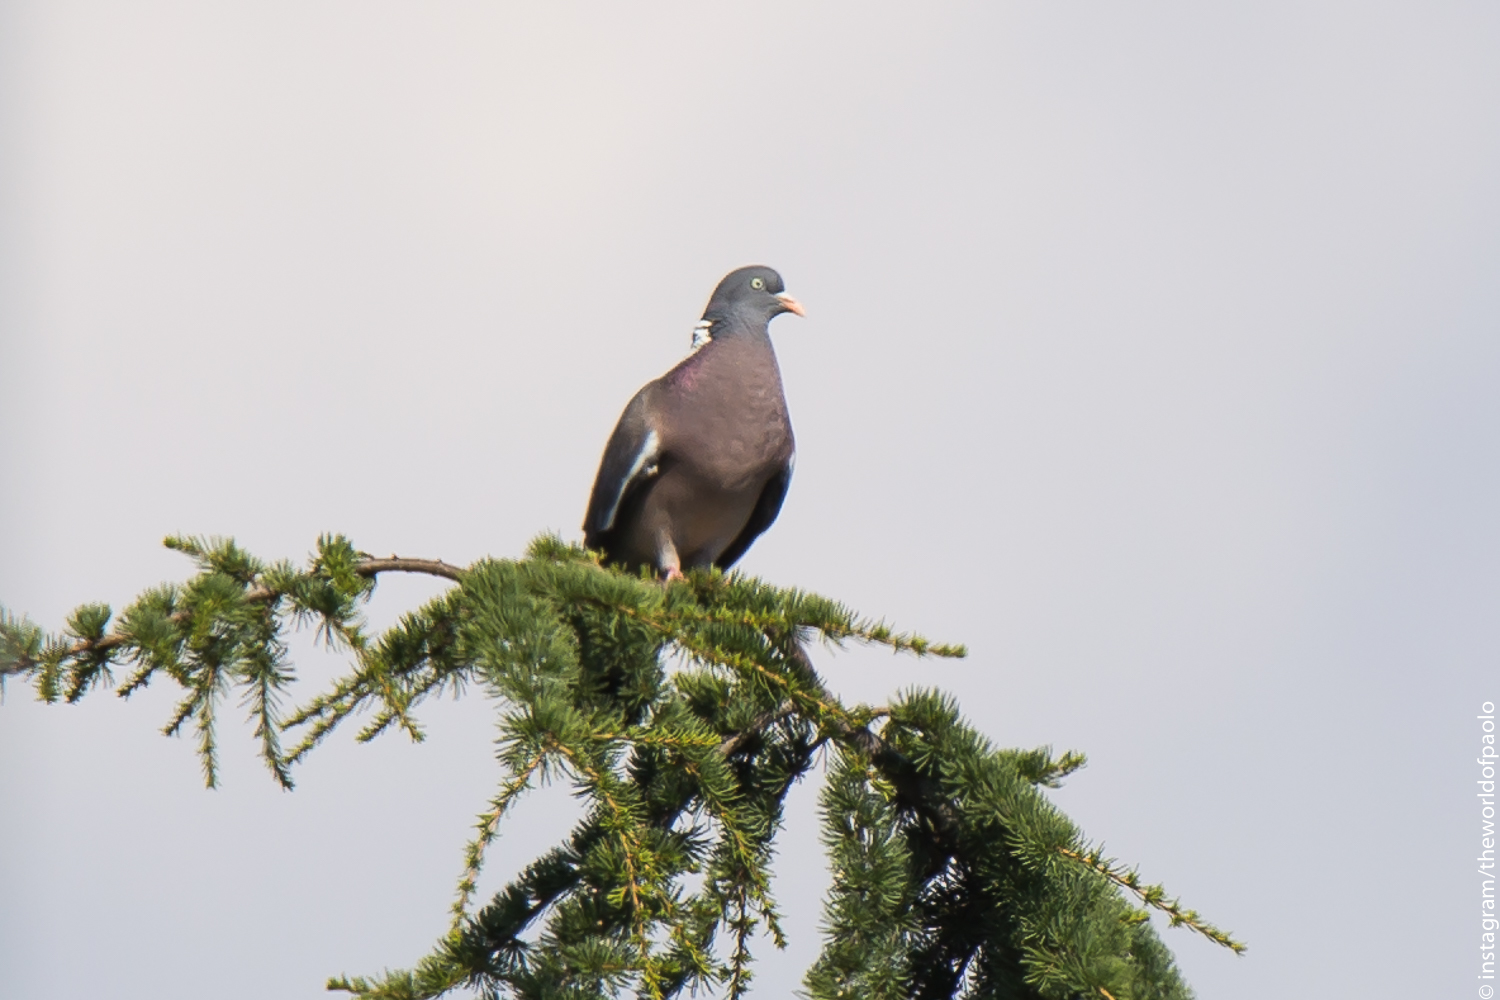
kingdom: Animalia
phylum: Chordata
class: Aves
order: Columbiformes
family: Columbidae
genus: Columba
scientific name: Columba palumbus
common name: Common wood pigeon
